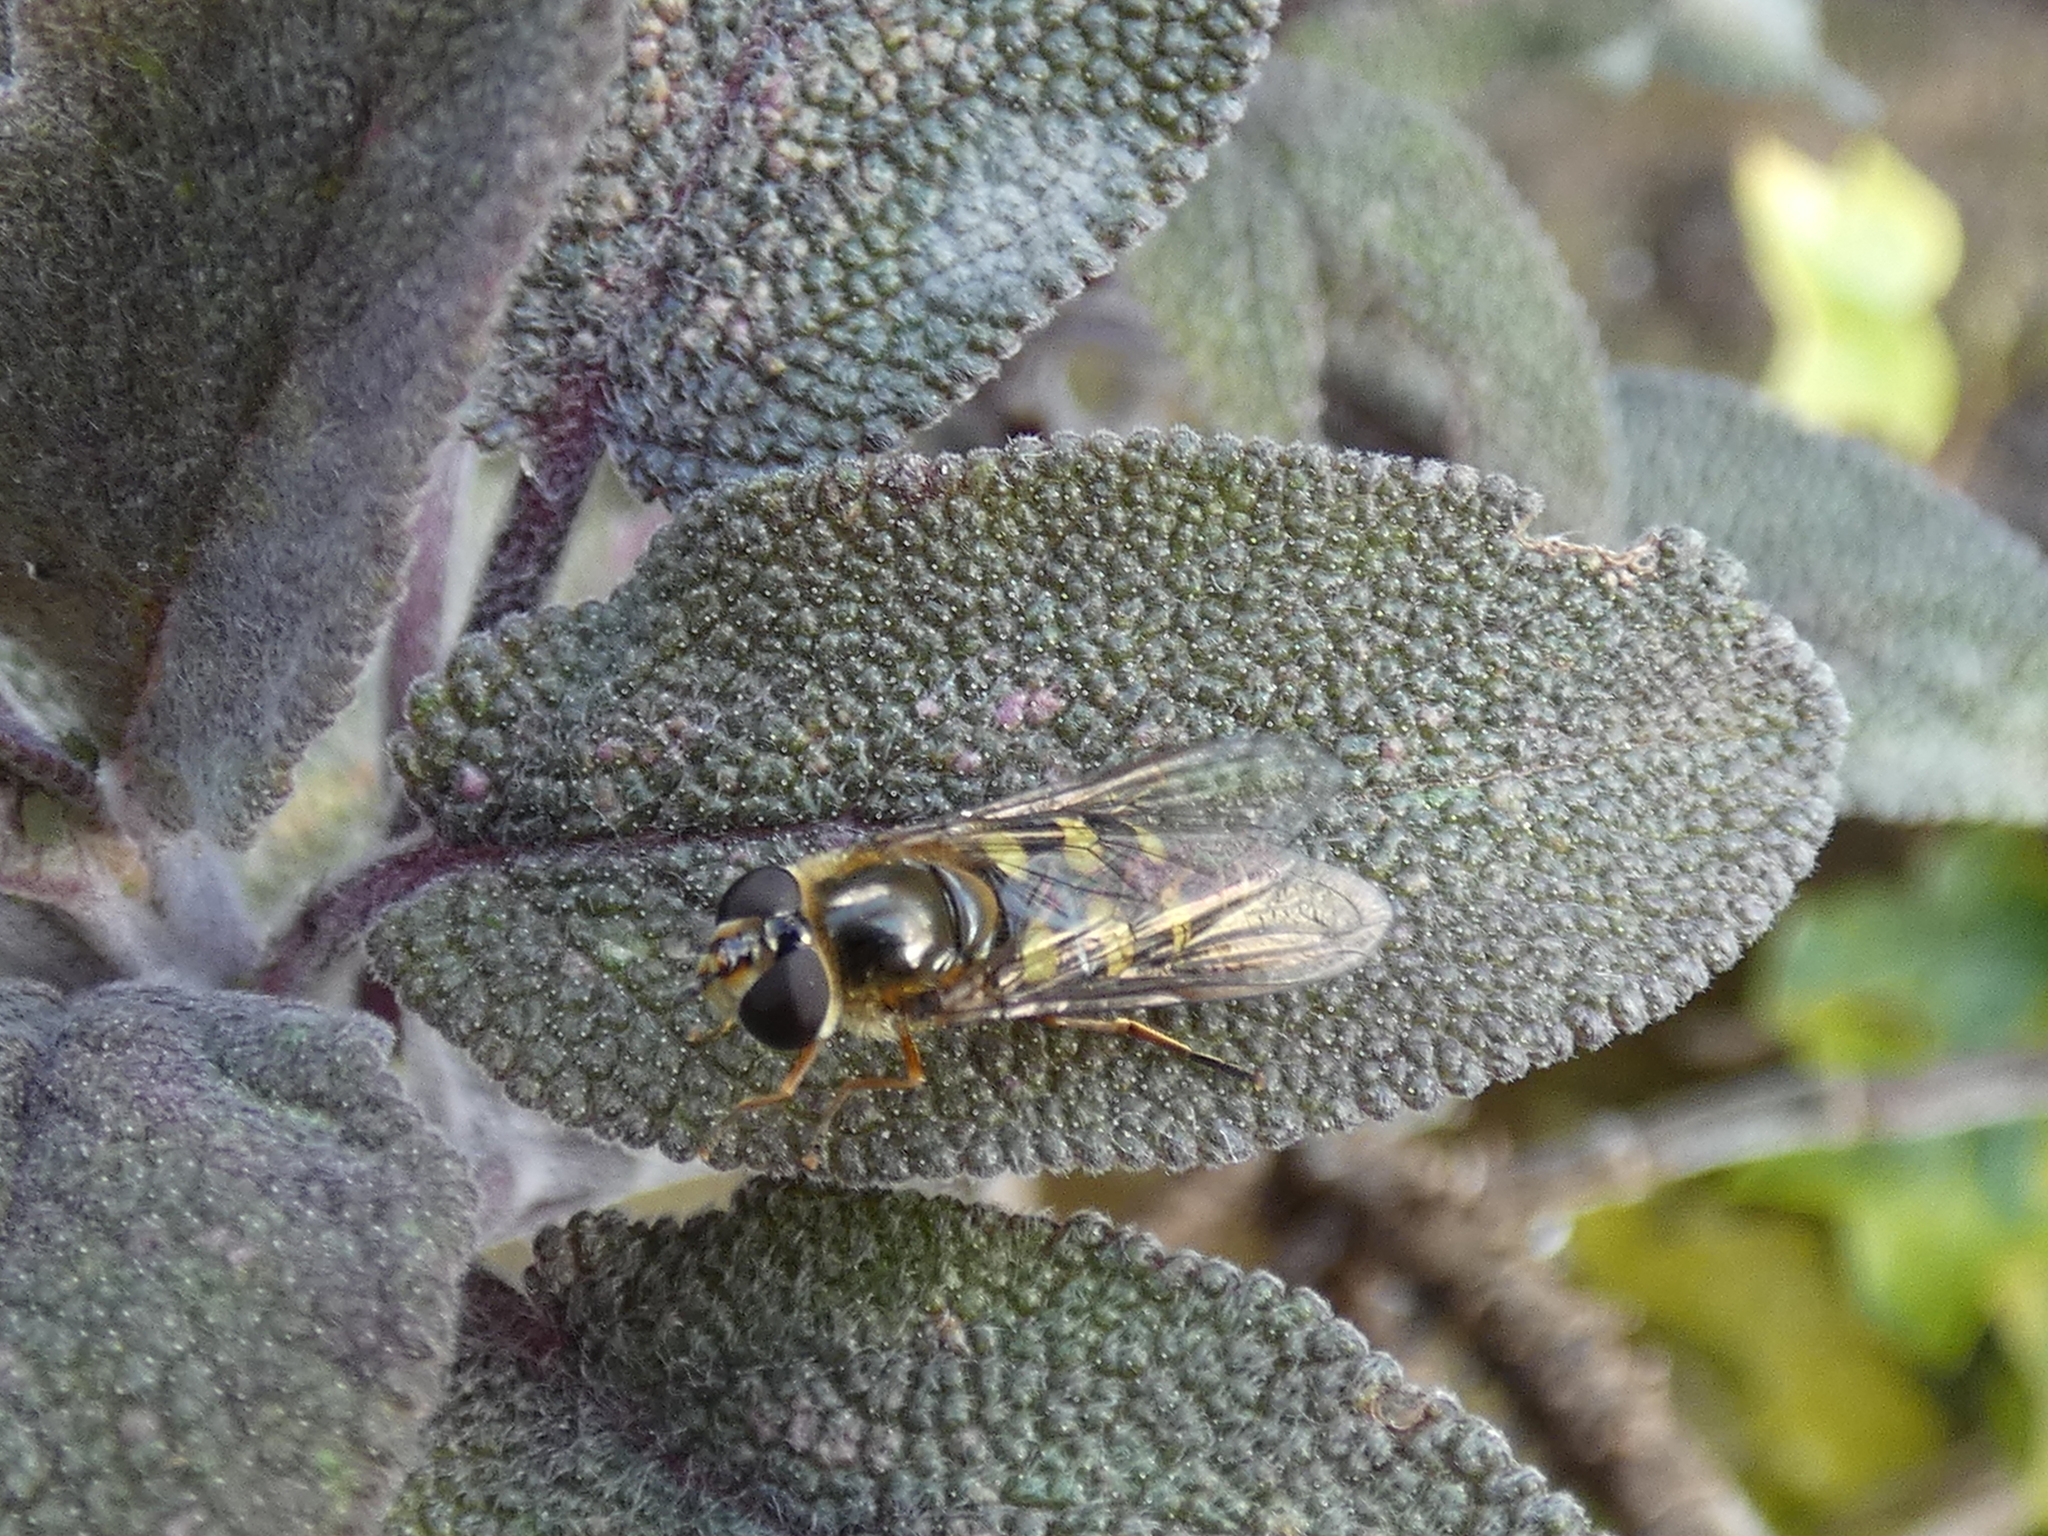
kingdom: Animalia
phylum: Arthropoda
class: Insecta
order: Diptera
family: Syrphidae
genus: Eupeodes
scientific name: Eupeodes luniger
